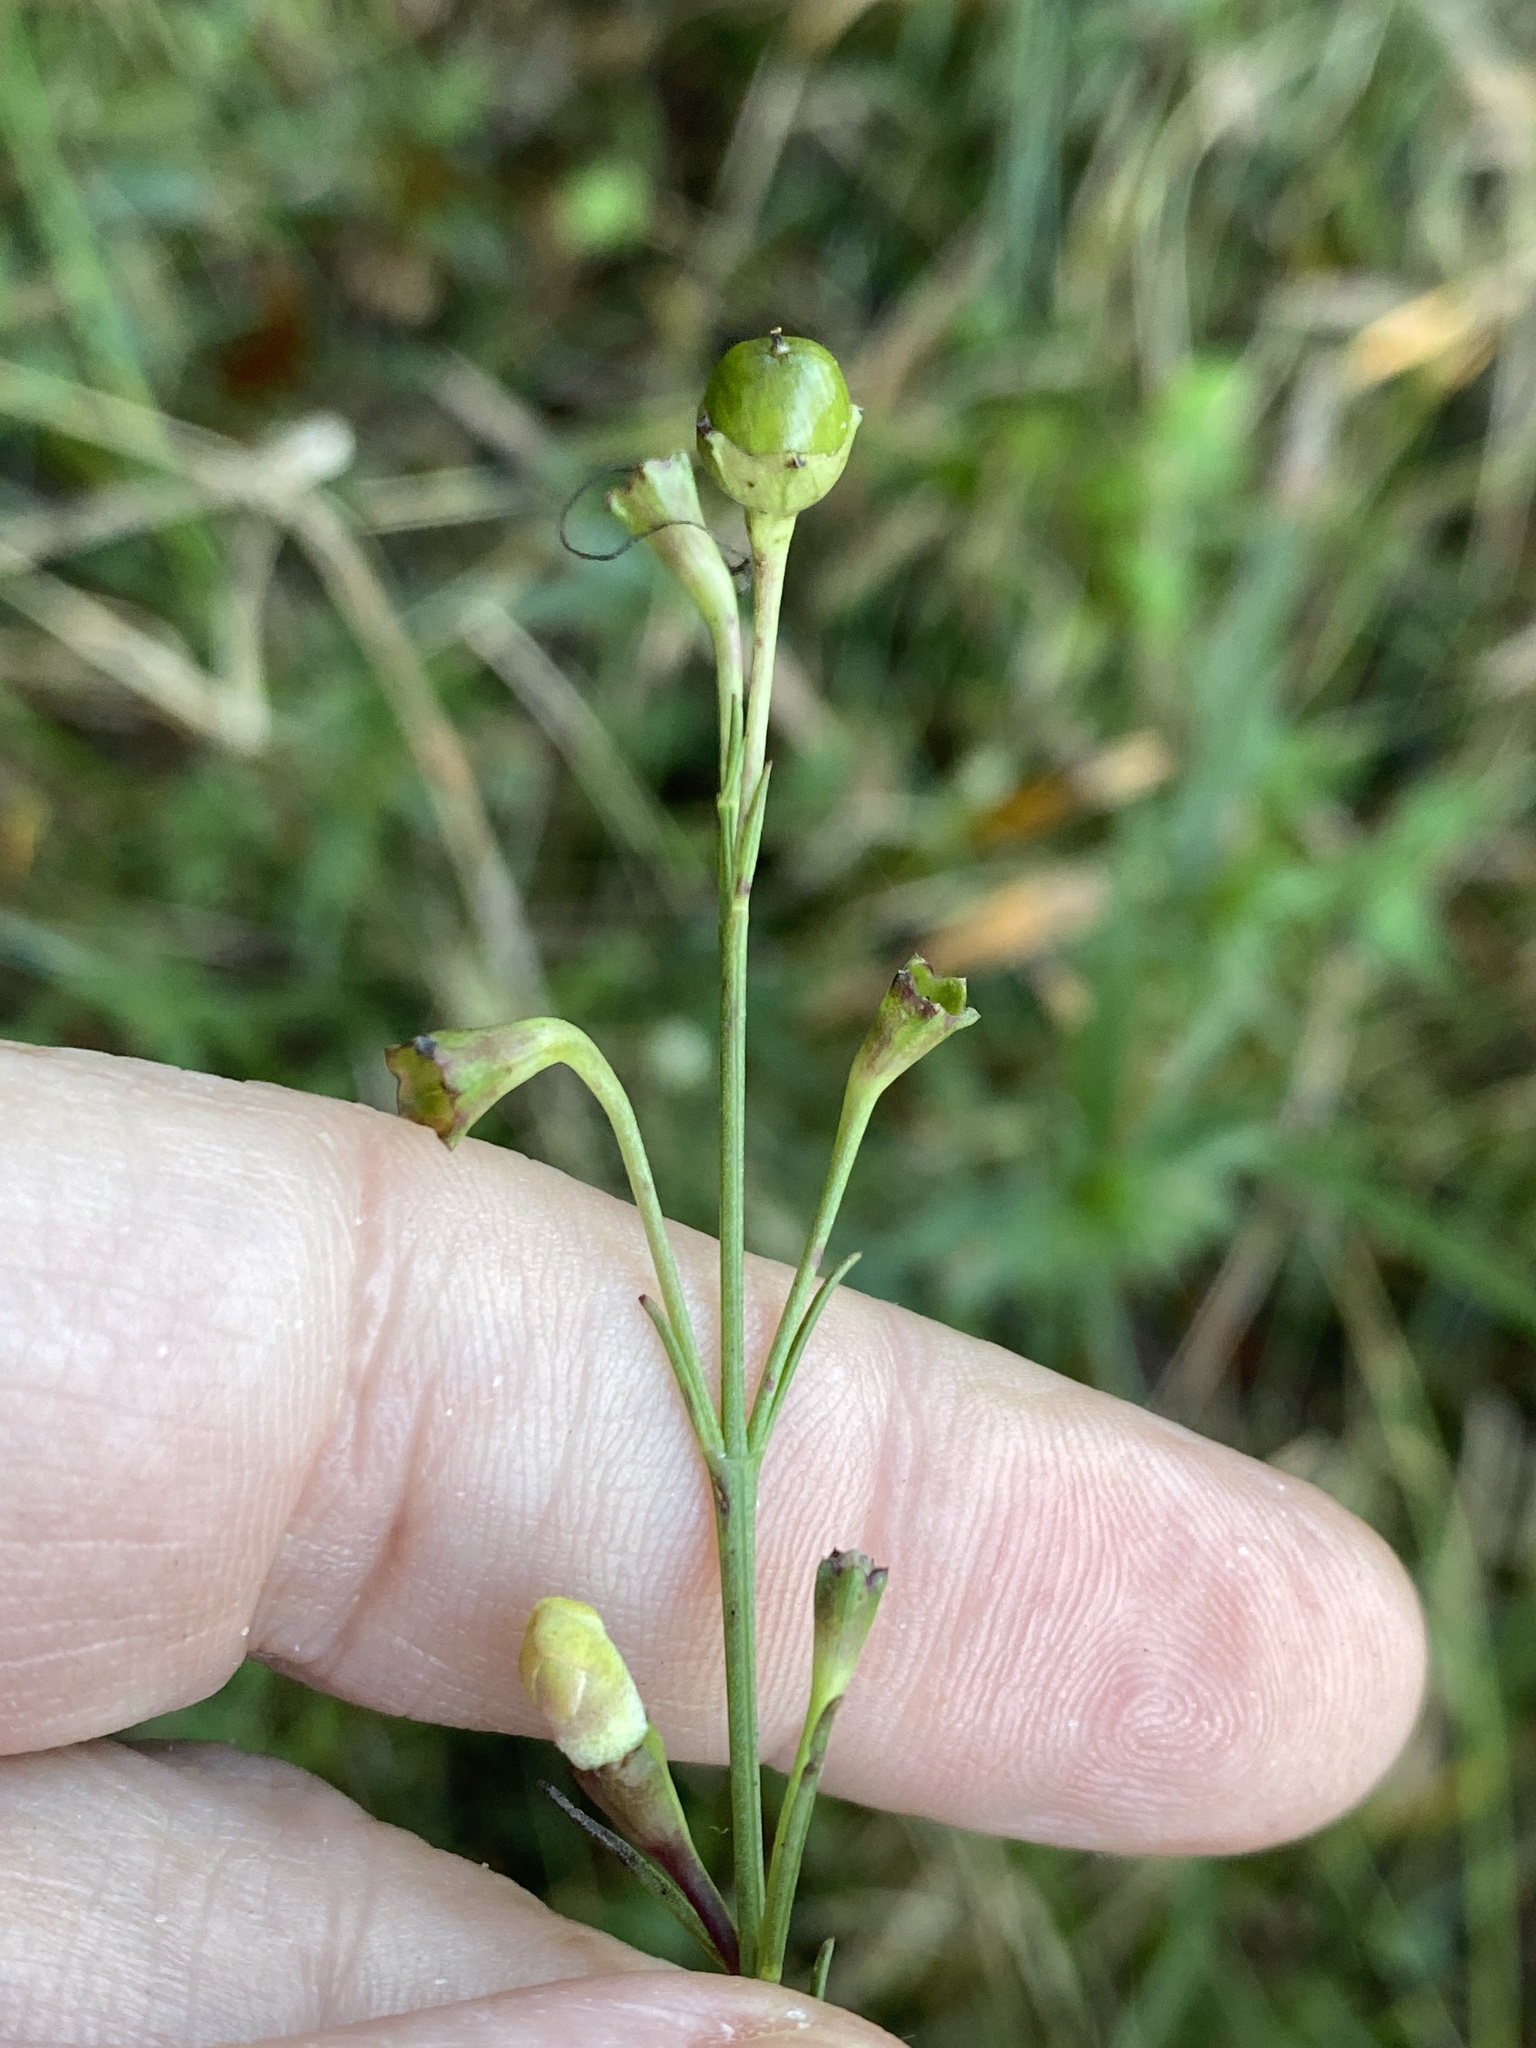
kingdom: Plantae
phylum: Tracheophyta
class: Magnoliopsida
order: Lamiales
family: Orobanchaceae
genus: Agalinis
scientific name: Agalinis linifolia
